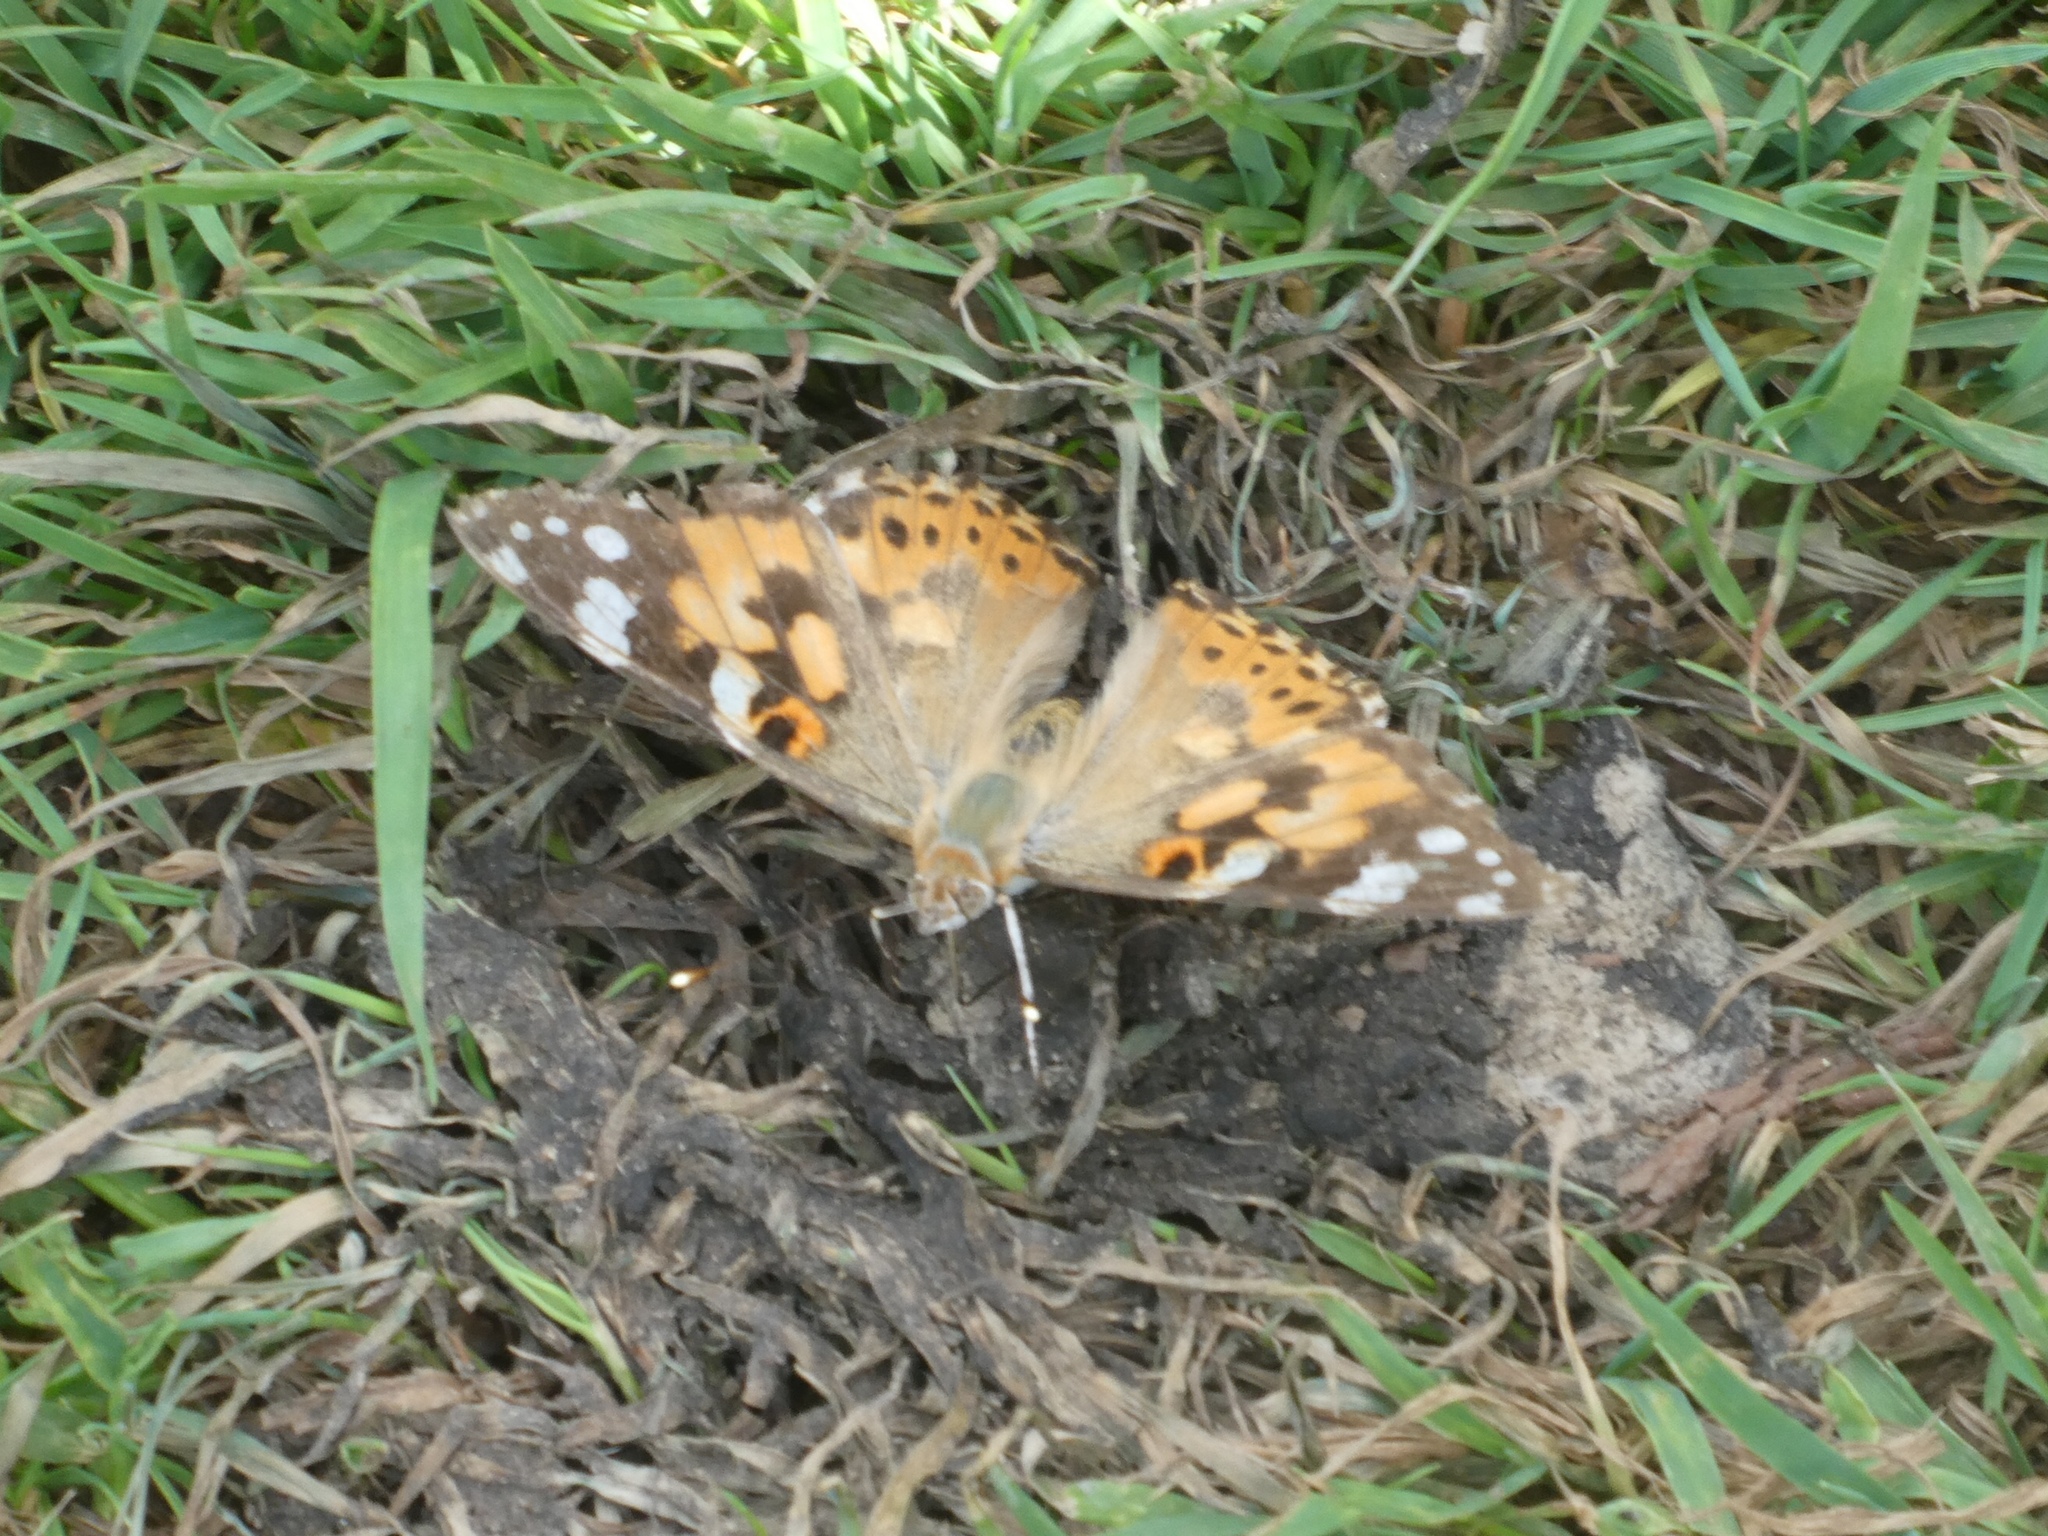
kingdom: Animalia
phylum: Arthropoda
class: Insecta
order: Lepidoptera
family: Nymphalidae
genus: Vanessa
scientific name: Vanessa cardui
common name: Painted lady
